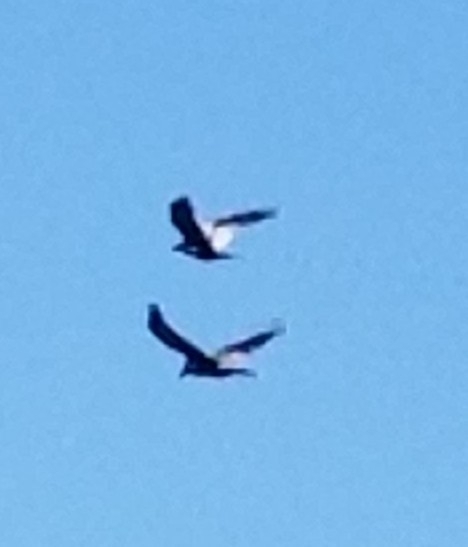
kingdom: Animalia
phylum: Chordata
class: Aves
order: Passeriformes
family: Corvidae
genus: Corvus
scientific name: Corvus corax
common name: Common raven
